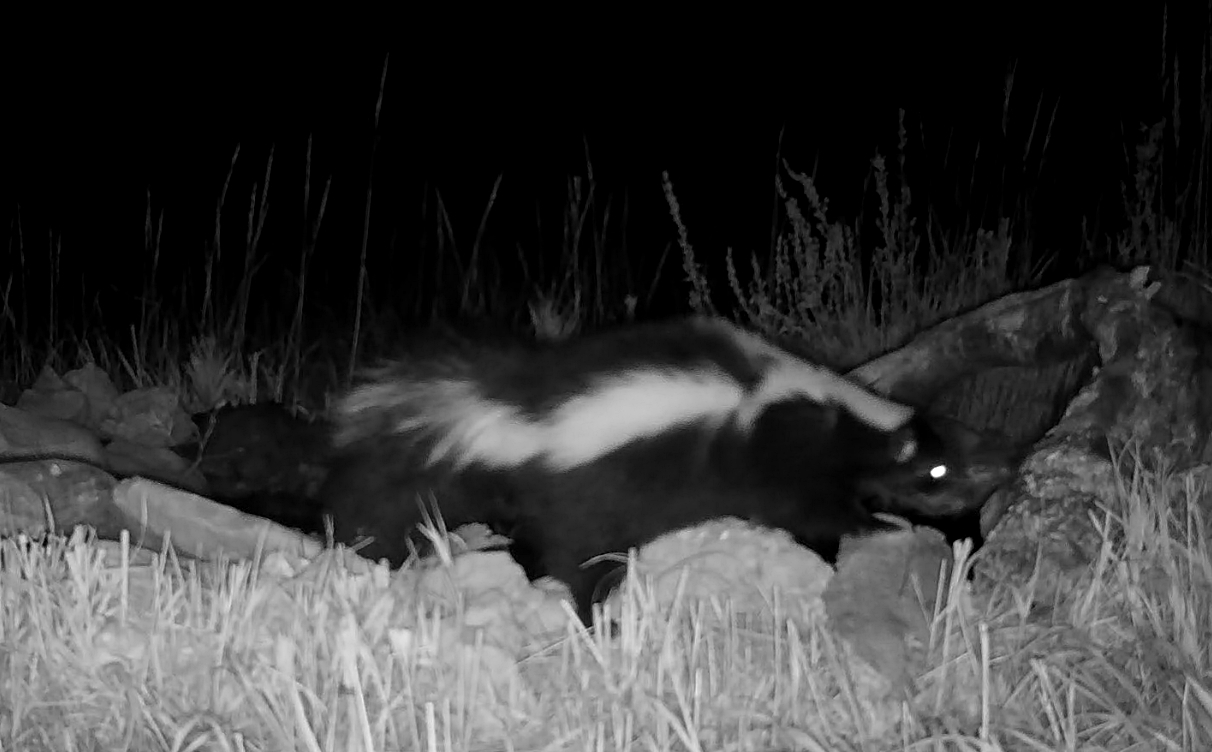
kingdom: Animalia
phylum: Chordata
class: Mammalia
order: Carnivora
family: Mephitidae
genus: Mephitis
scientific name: Mephitis mephitis
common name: Striped skunk
